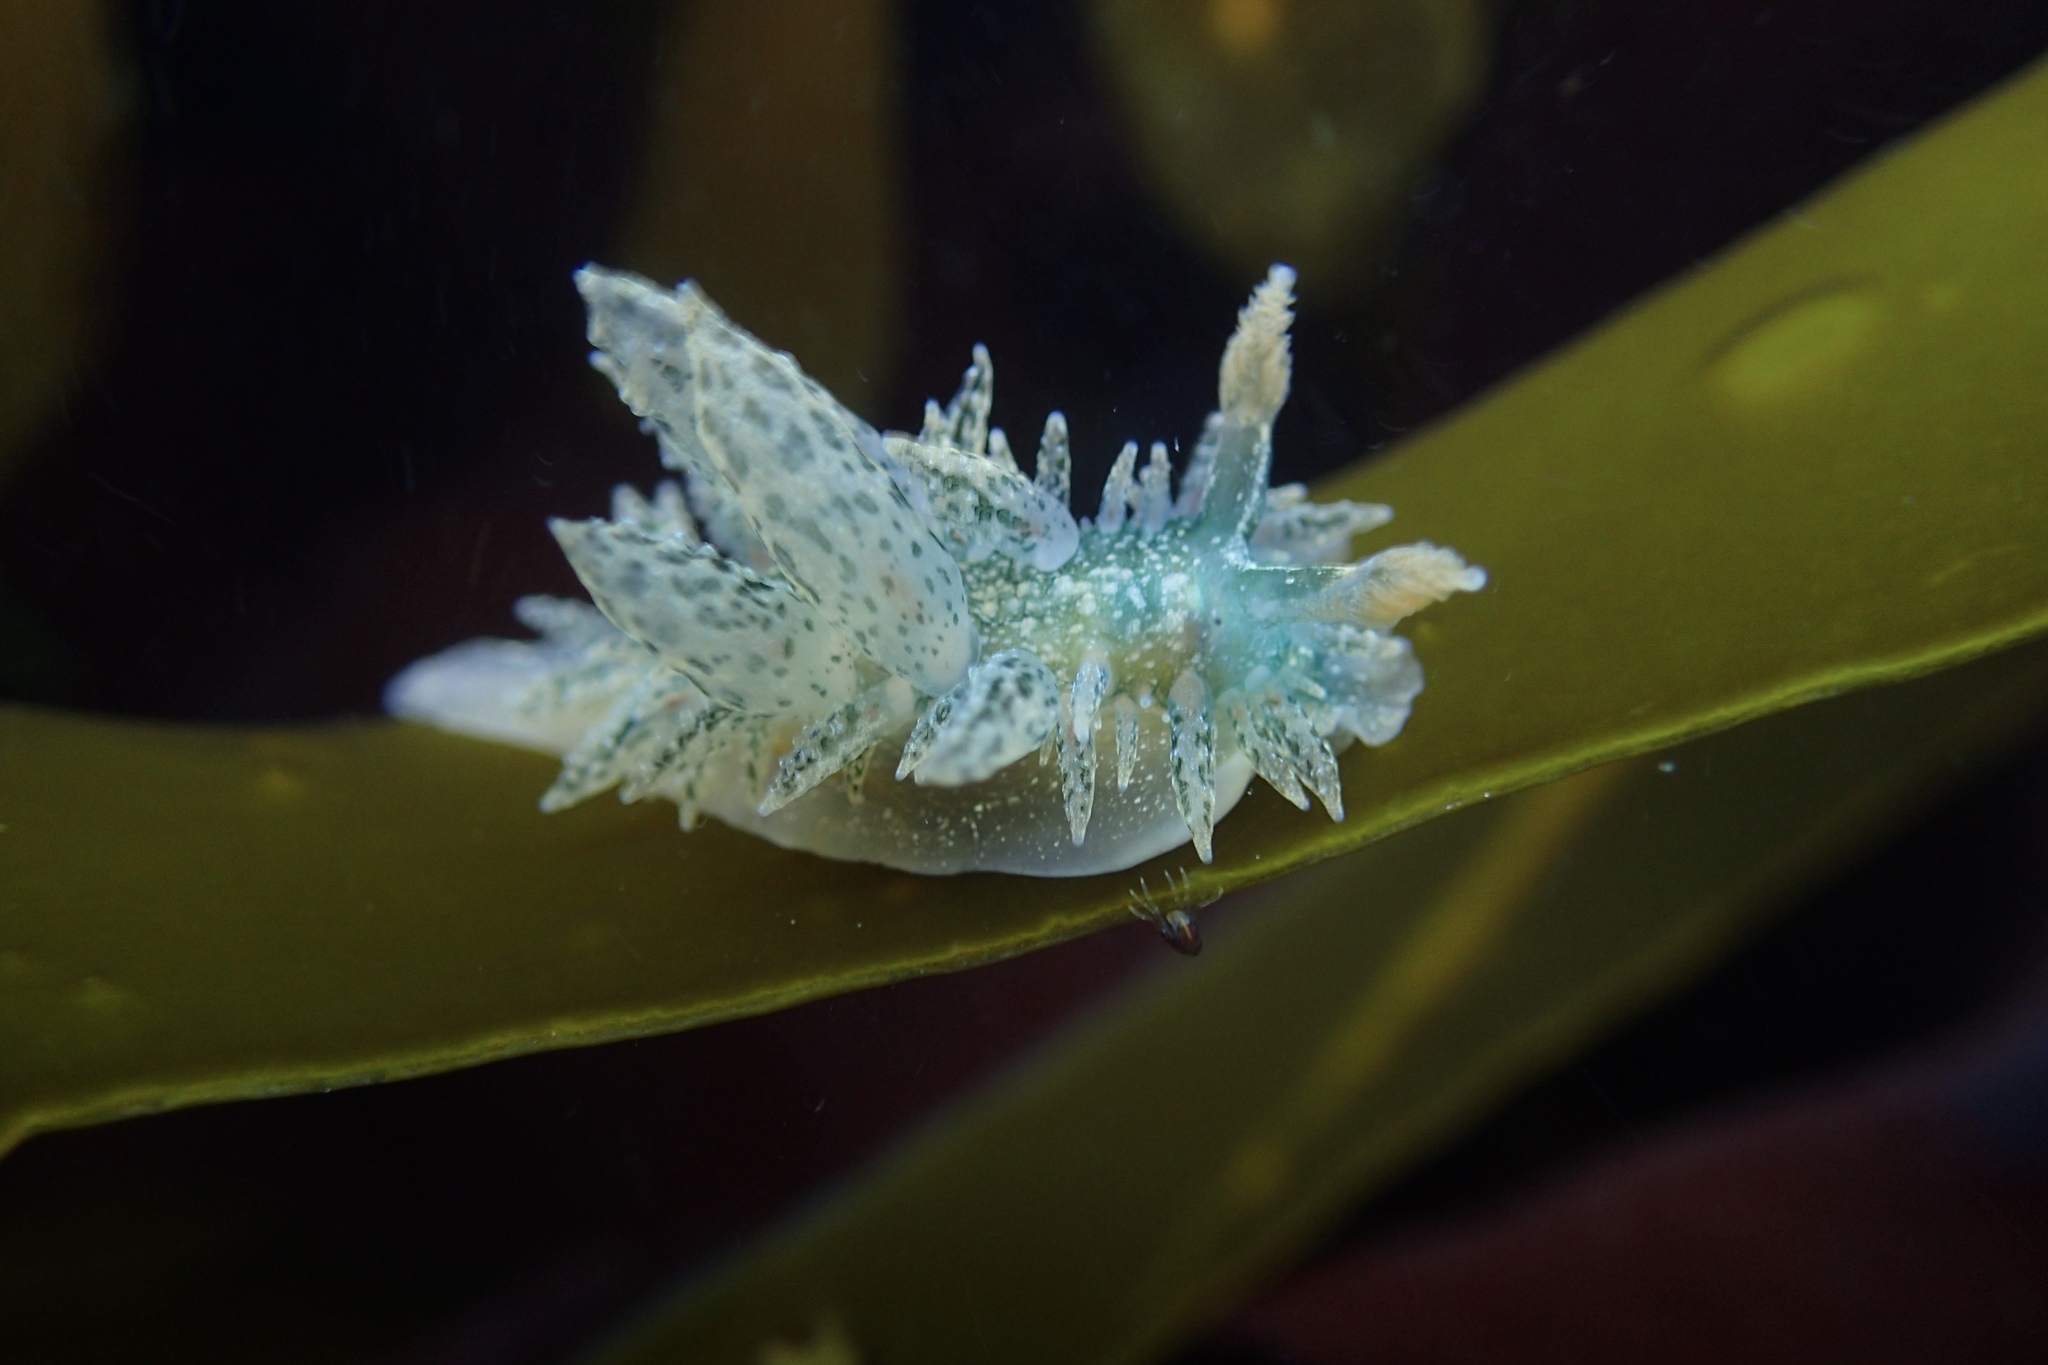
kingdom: Animalia
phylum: Mollusca
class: Gastropoda
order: Nudibranchia
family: Dironidae
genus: Dirona
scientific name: Dirona picta
